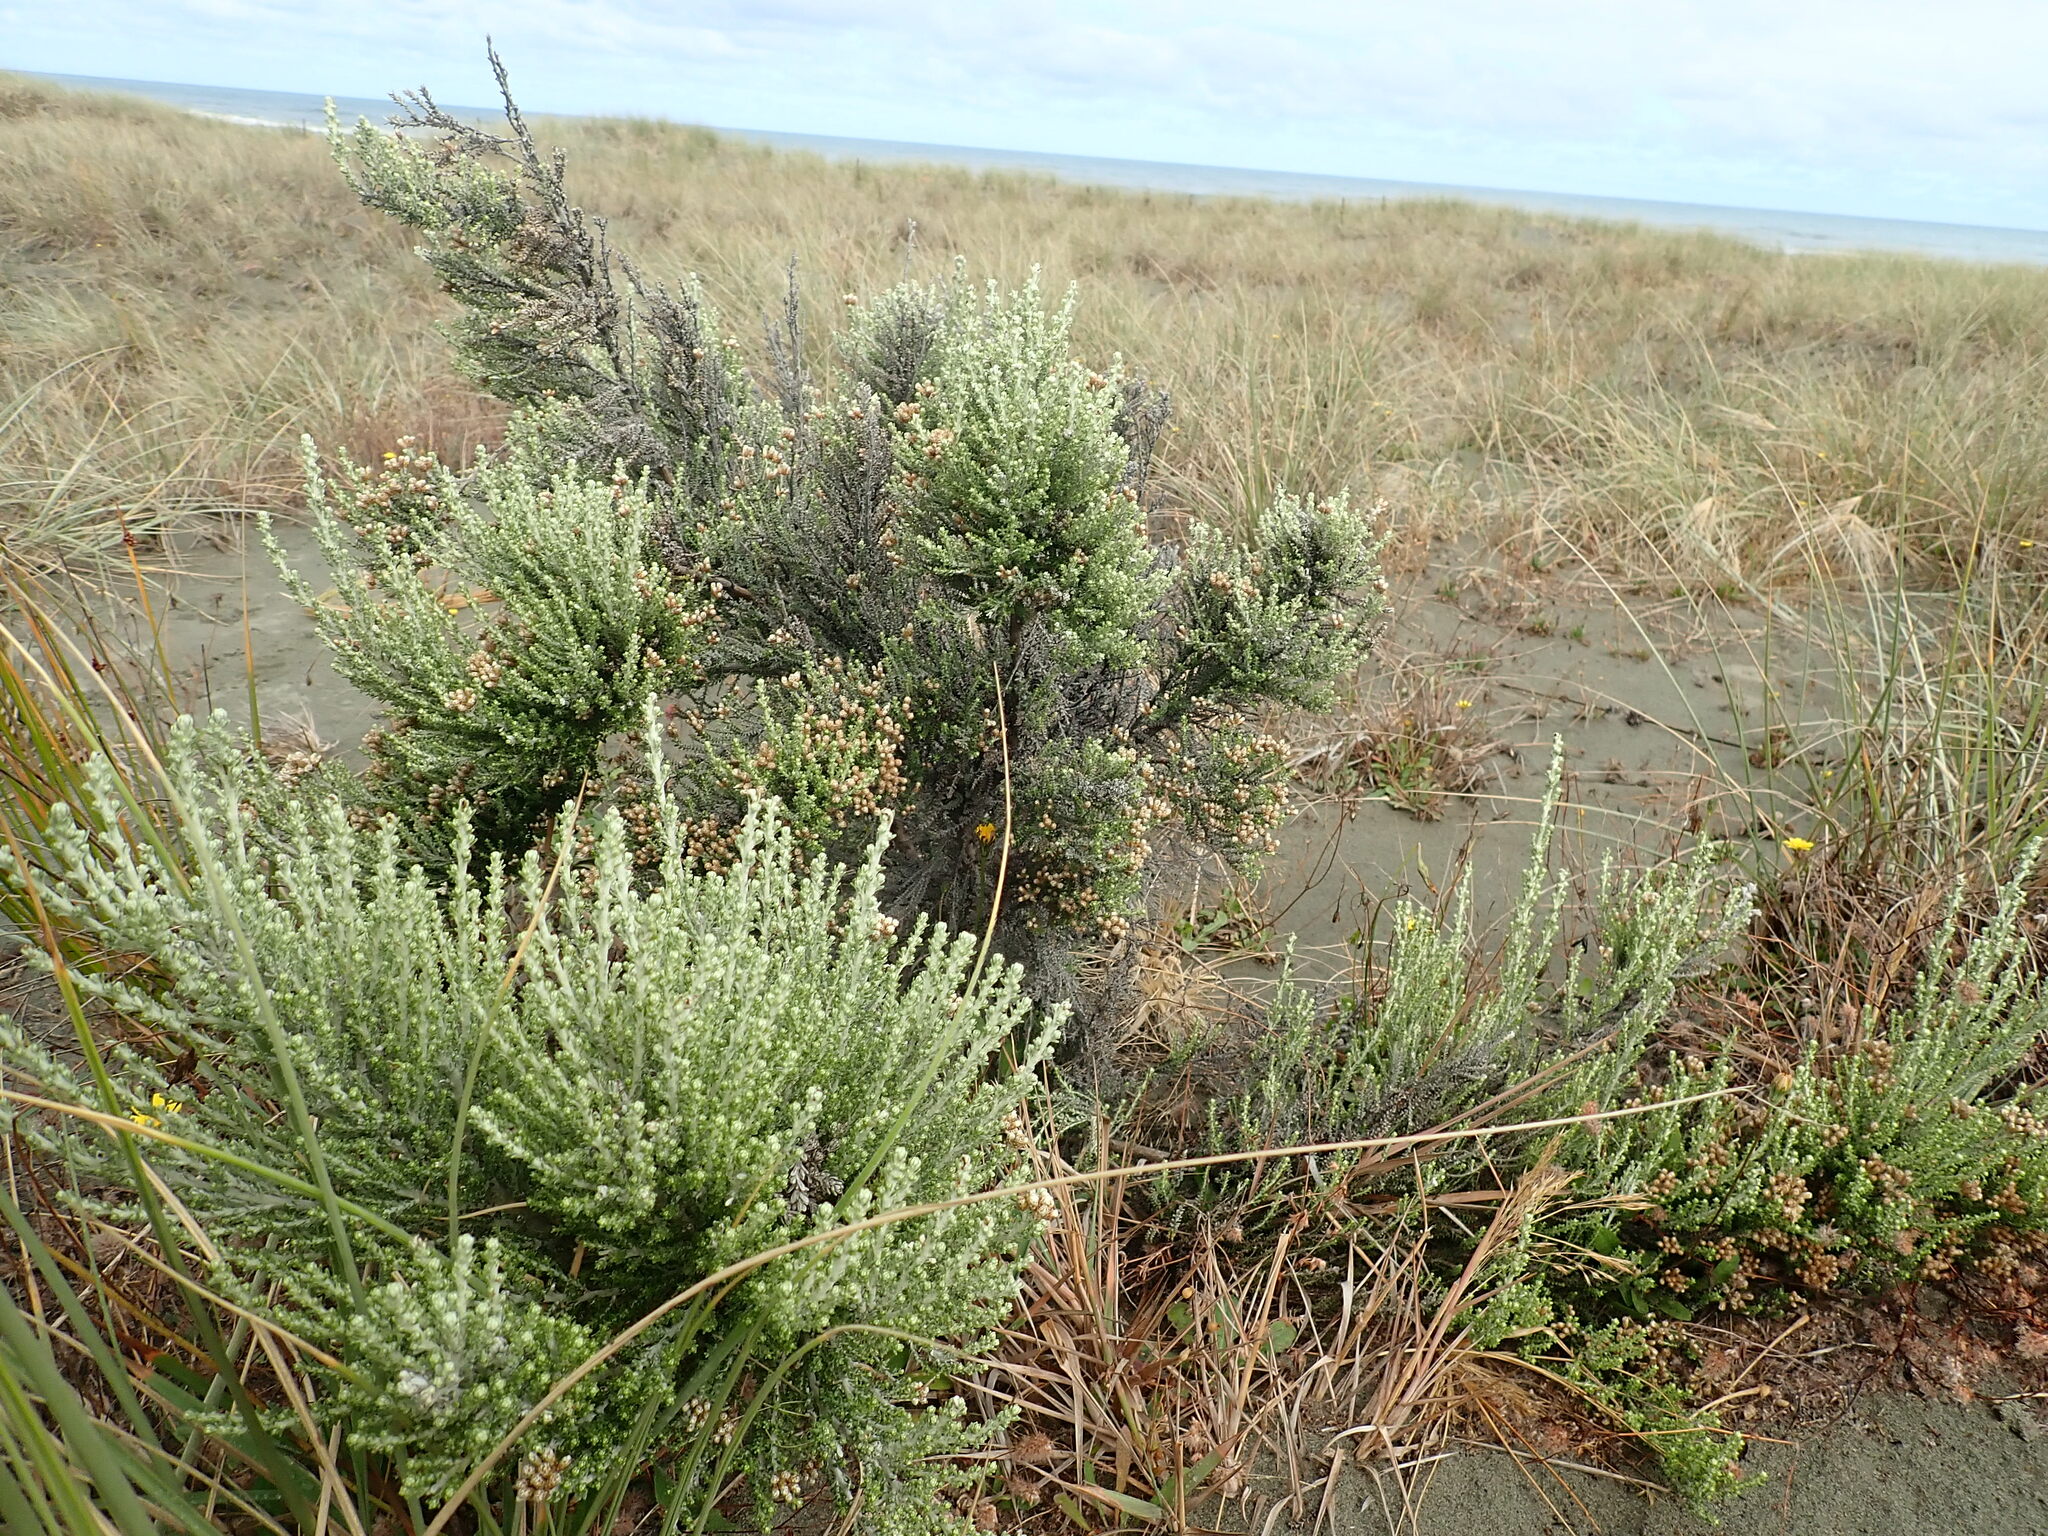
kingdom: Plantae
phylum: Tracheophyta
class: Magnoliopsida
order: Asterales
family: Asteraceae
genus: Ozothamnus
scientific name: Ozothamnus leptophyllus
